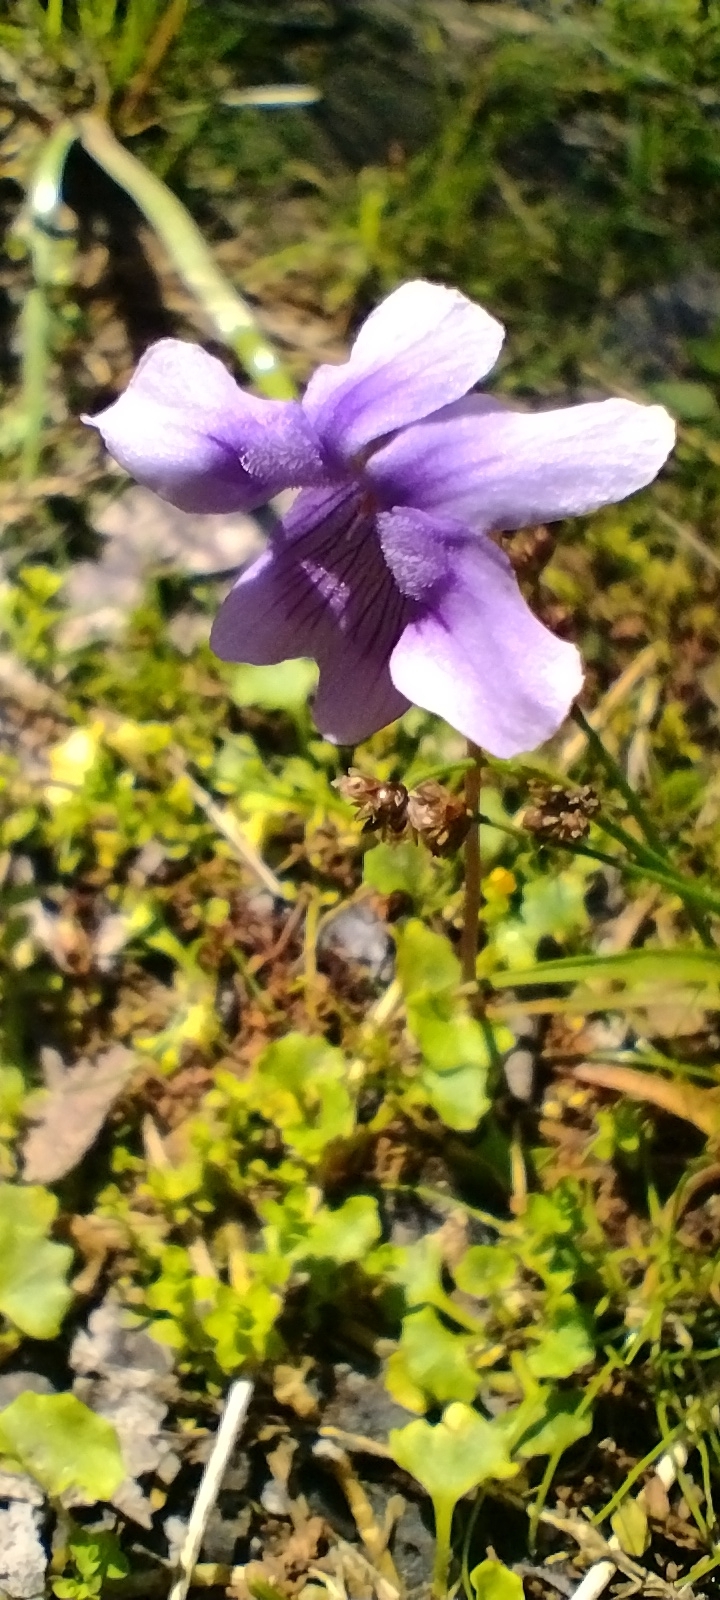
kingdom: Plantae
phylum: Tracheophyta
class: Magnoliopsida
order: Malpighiales
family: Violaceae
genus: Viola
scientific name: Viola hederacea
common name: Australian violet
